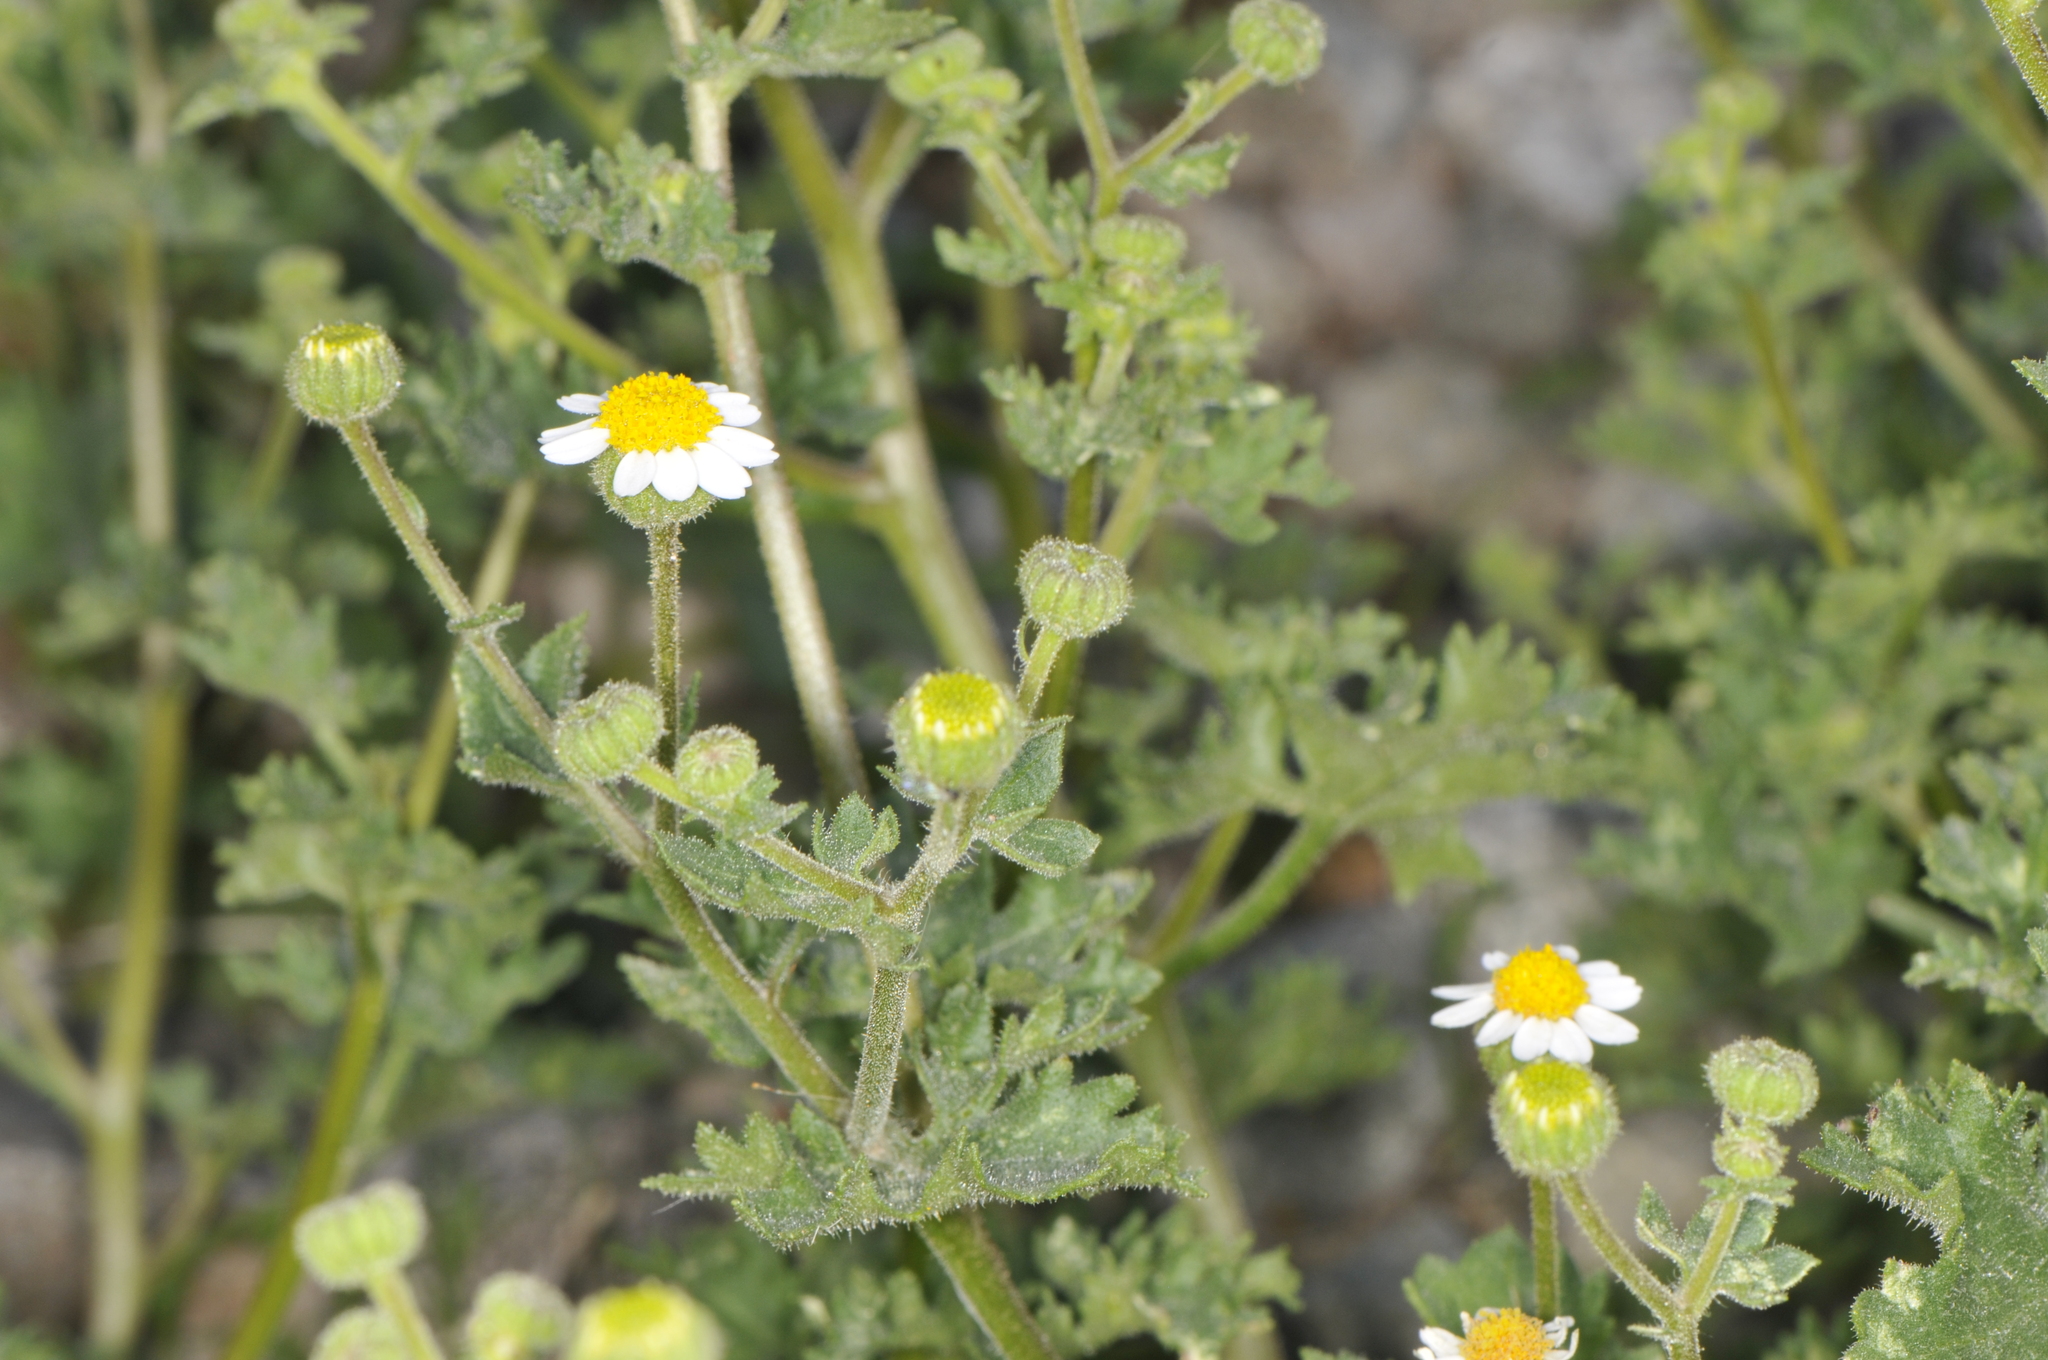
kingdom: Plantae
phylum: Tracheophyta
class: Magnoliopsida
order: Asterales
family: Asteraceae
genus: Laphamia
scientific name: Laphamia emoryi
